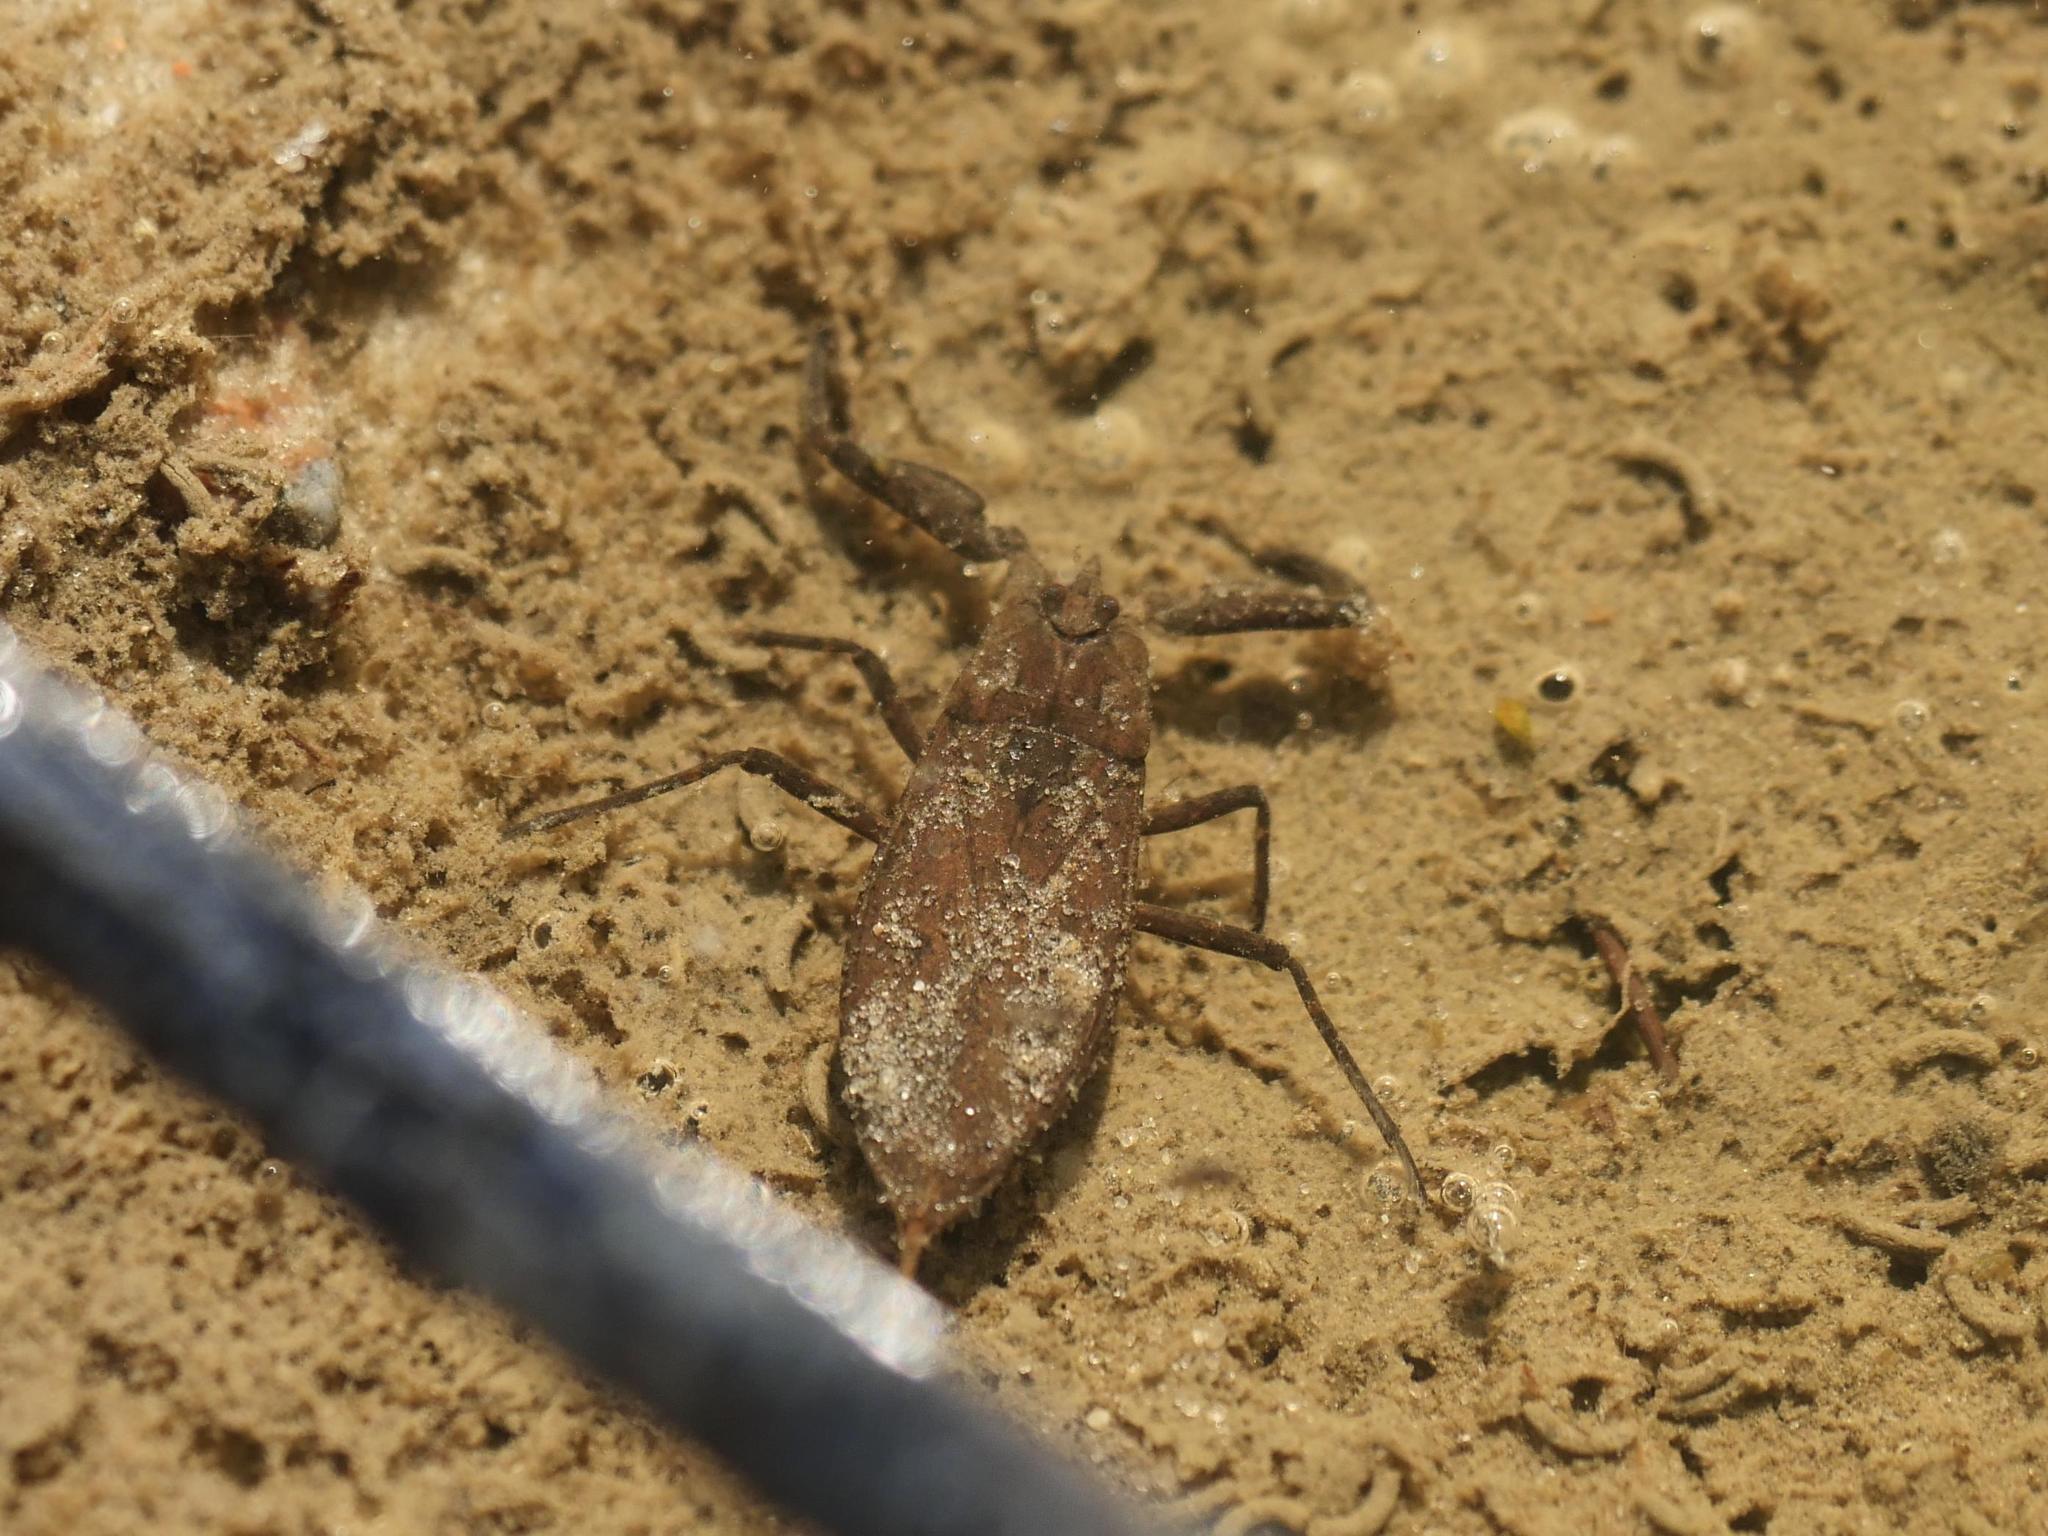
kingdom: Animalia
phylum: Arthropoda
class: Insecta
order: Hemiptera
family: Nepidae
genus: Nepa
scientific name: Nepa cinerea
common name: Water scorpion
